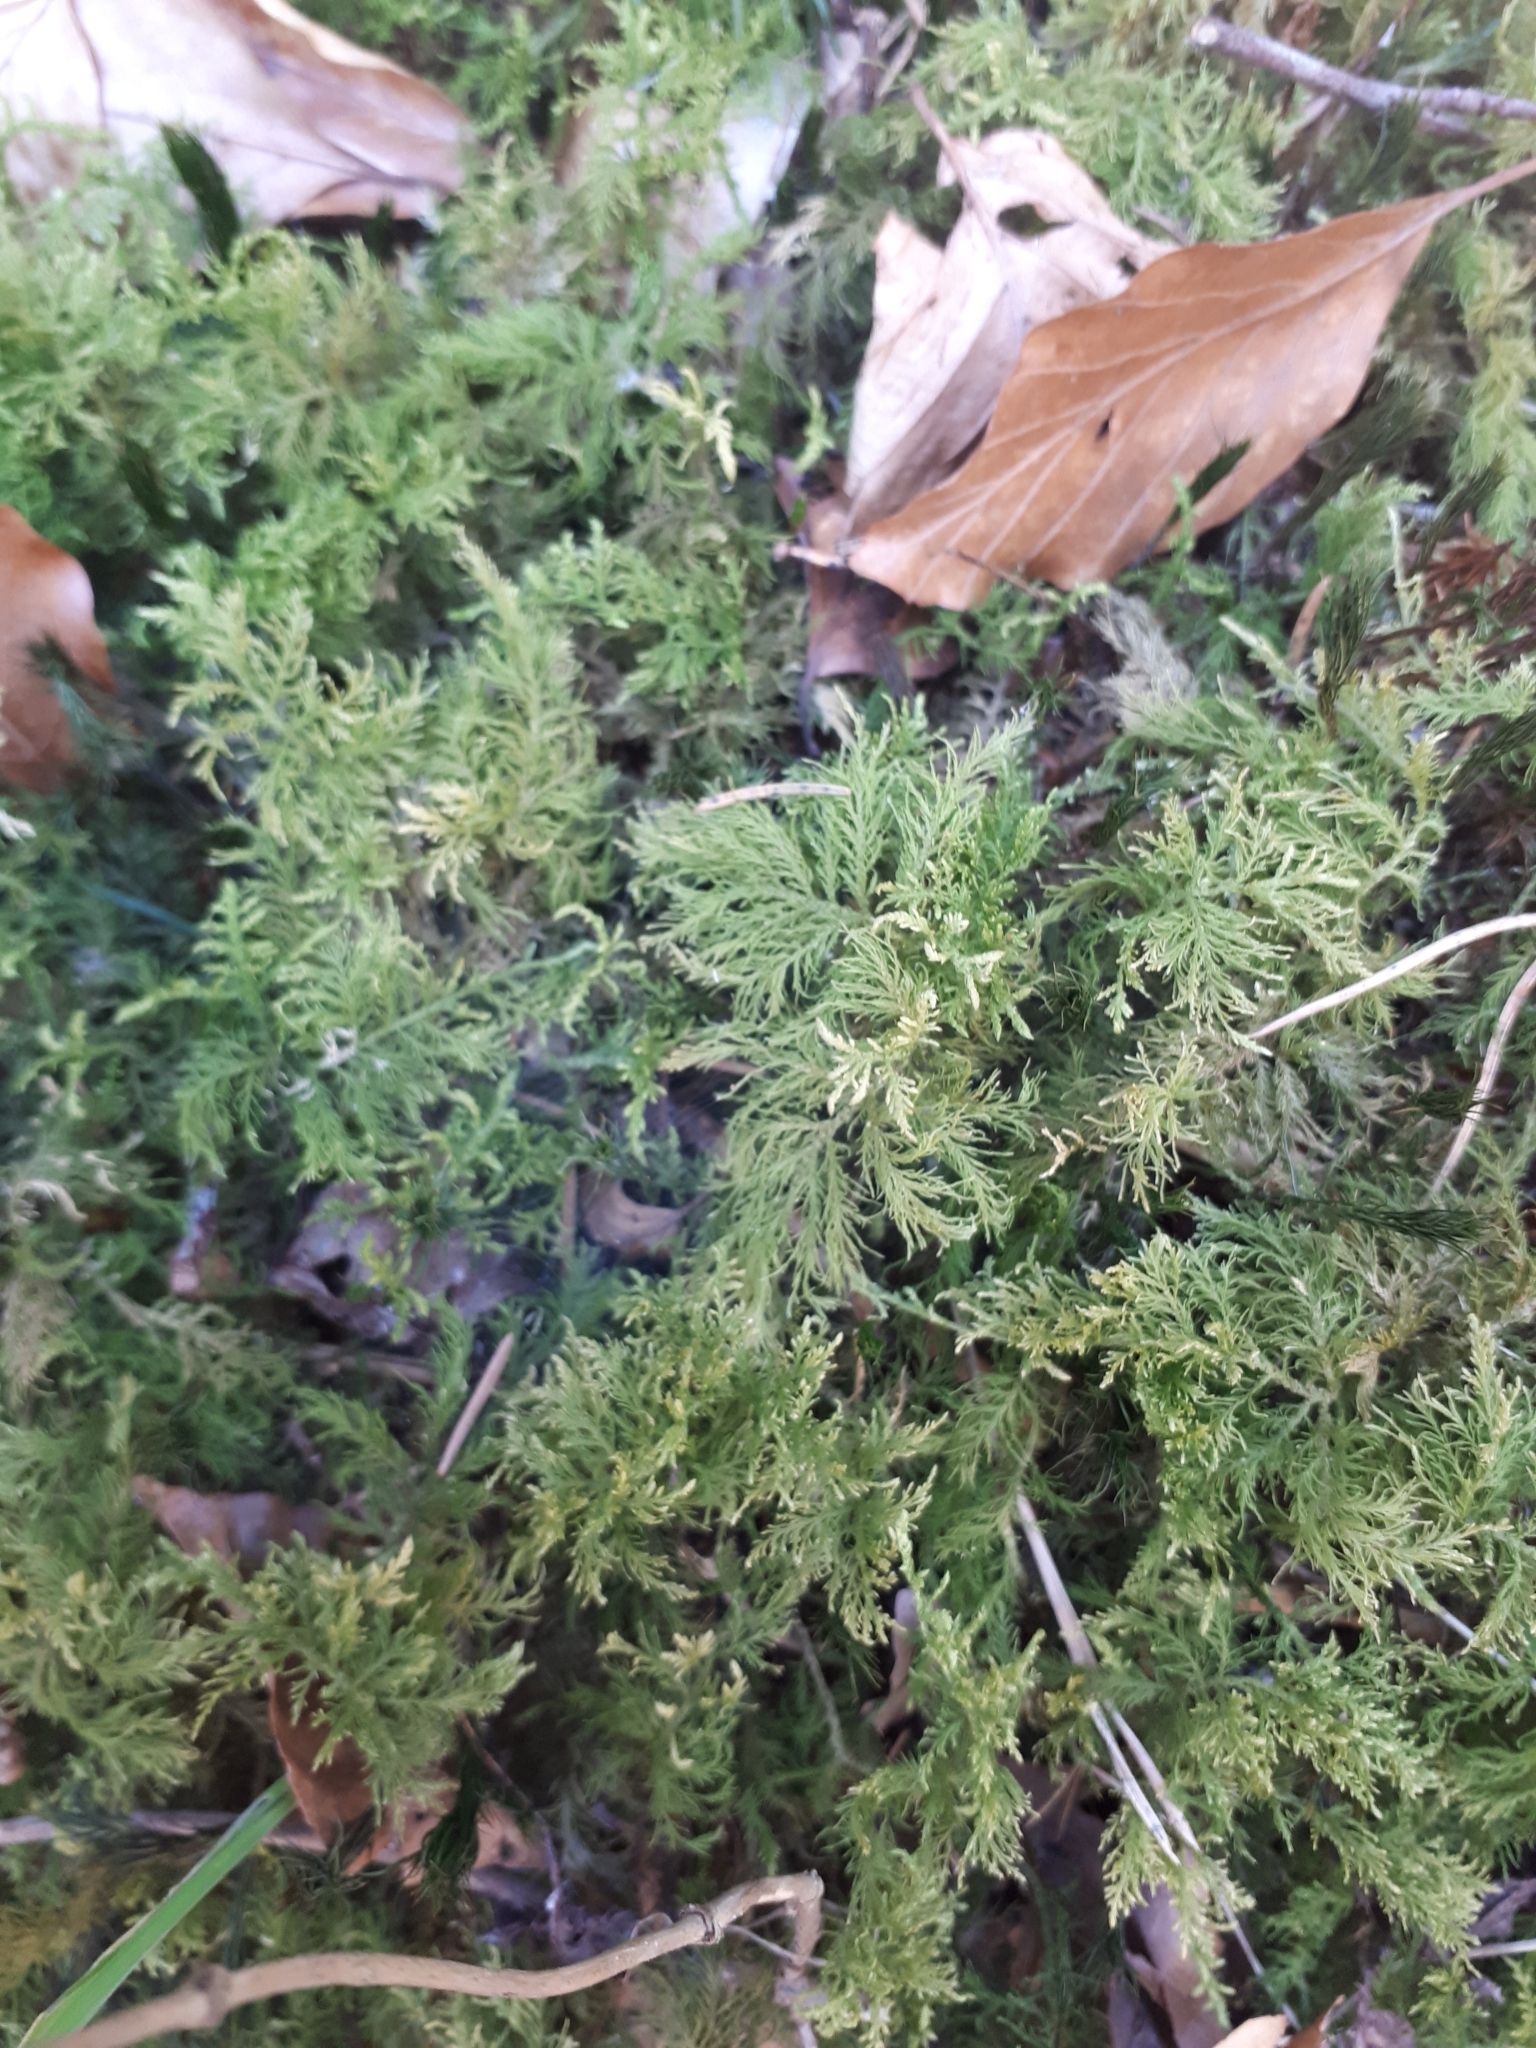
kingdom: Plantae
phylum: Bryophyta
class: Bryopsida
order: Hypnales
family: Thuidiaceae
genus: Thuidium
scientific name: Thuidium tamariscinum
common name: Common tamarisk-moss
